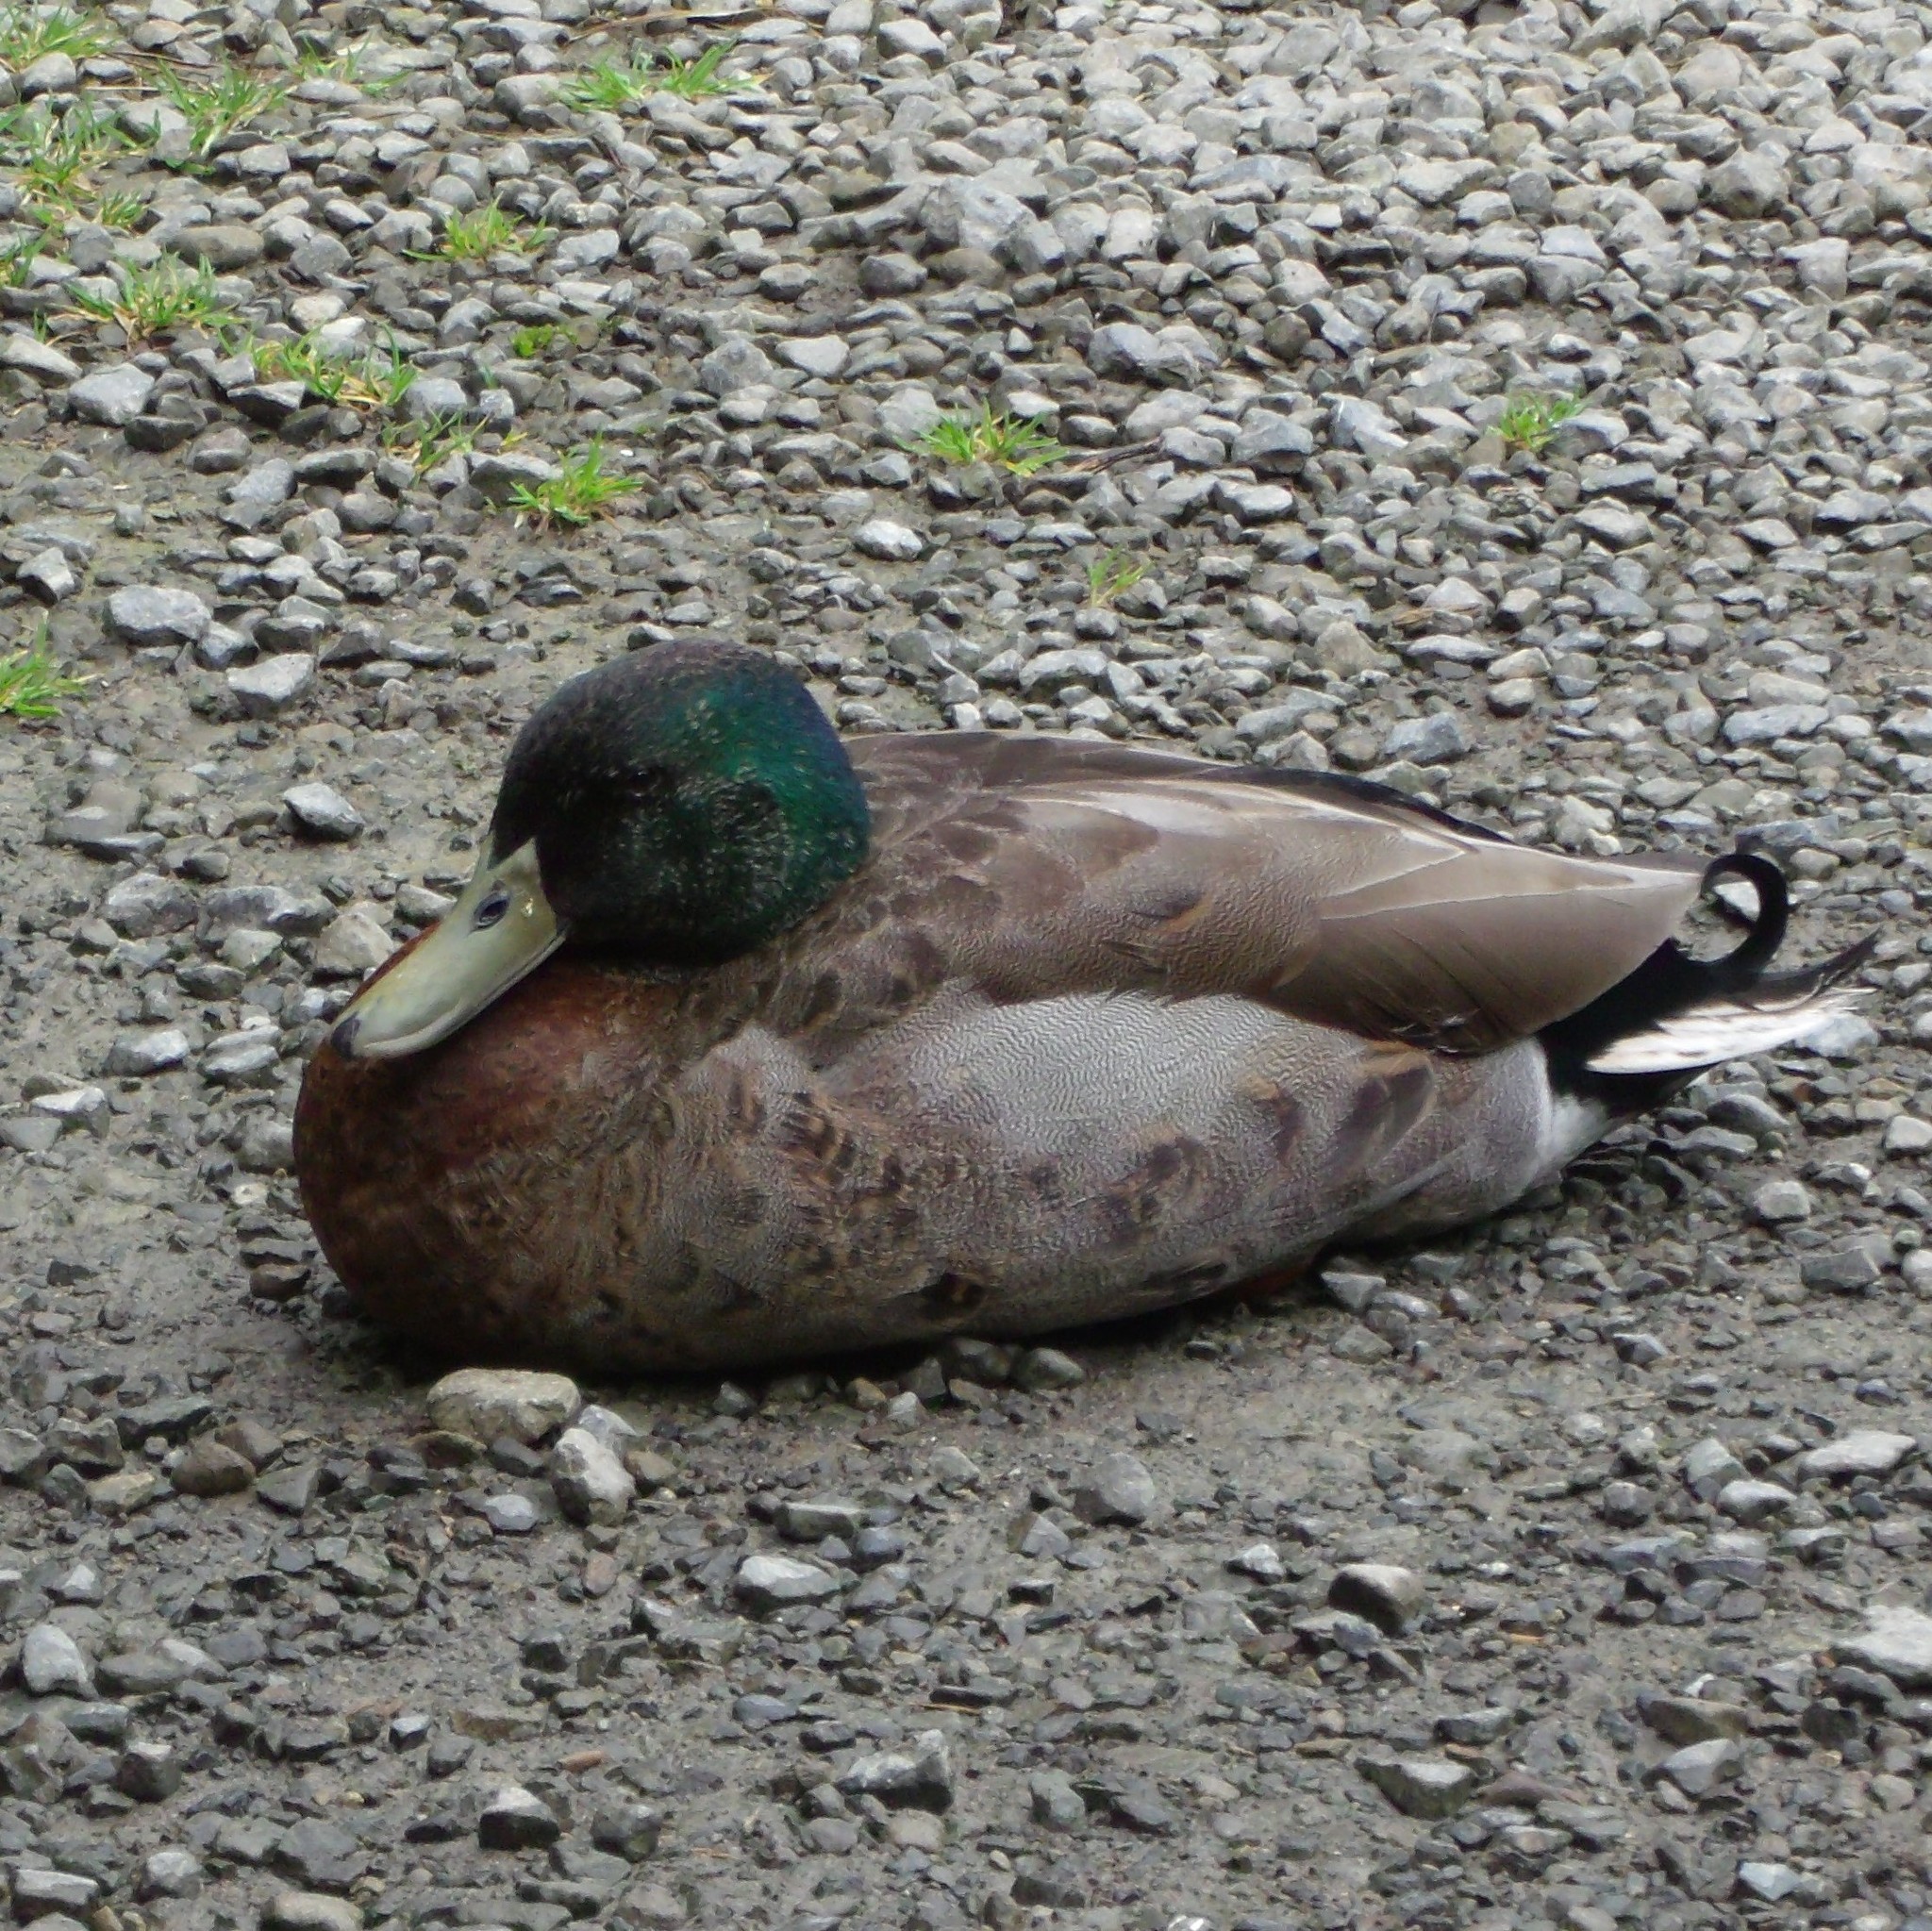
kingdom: Animalia
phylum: Chordata
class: Aves
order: Anseriformes
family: Anatidae
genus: Anas
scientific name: Anas platyrhynchos
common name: Mallard
